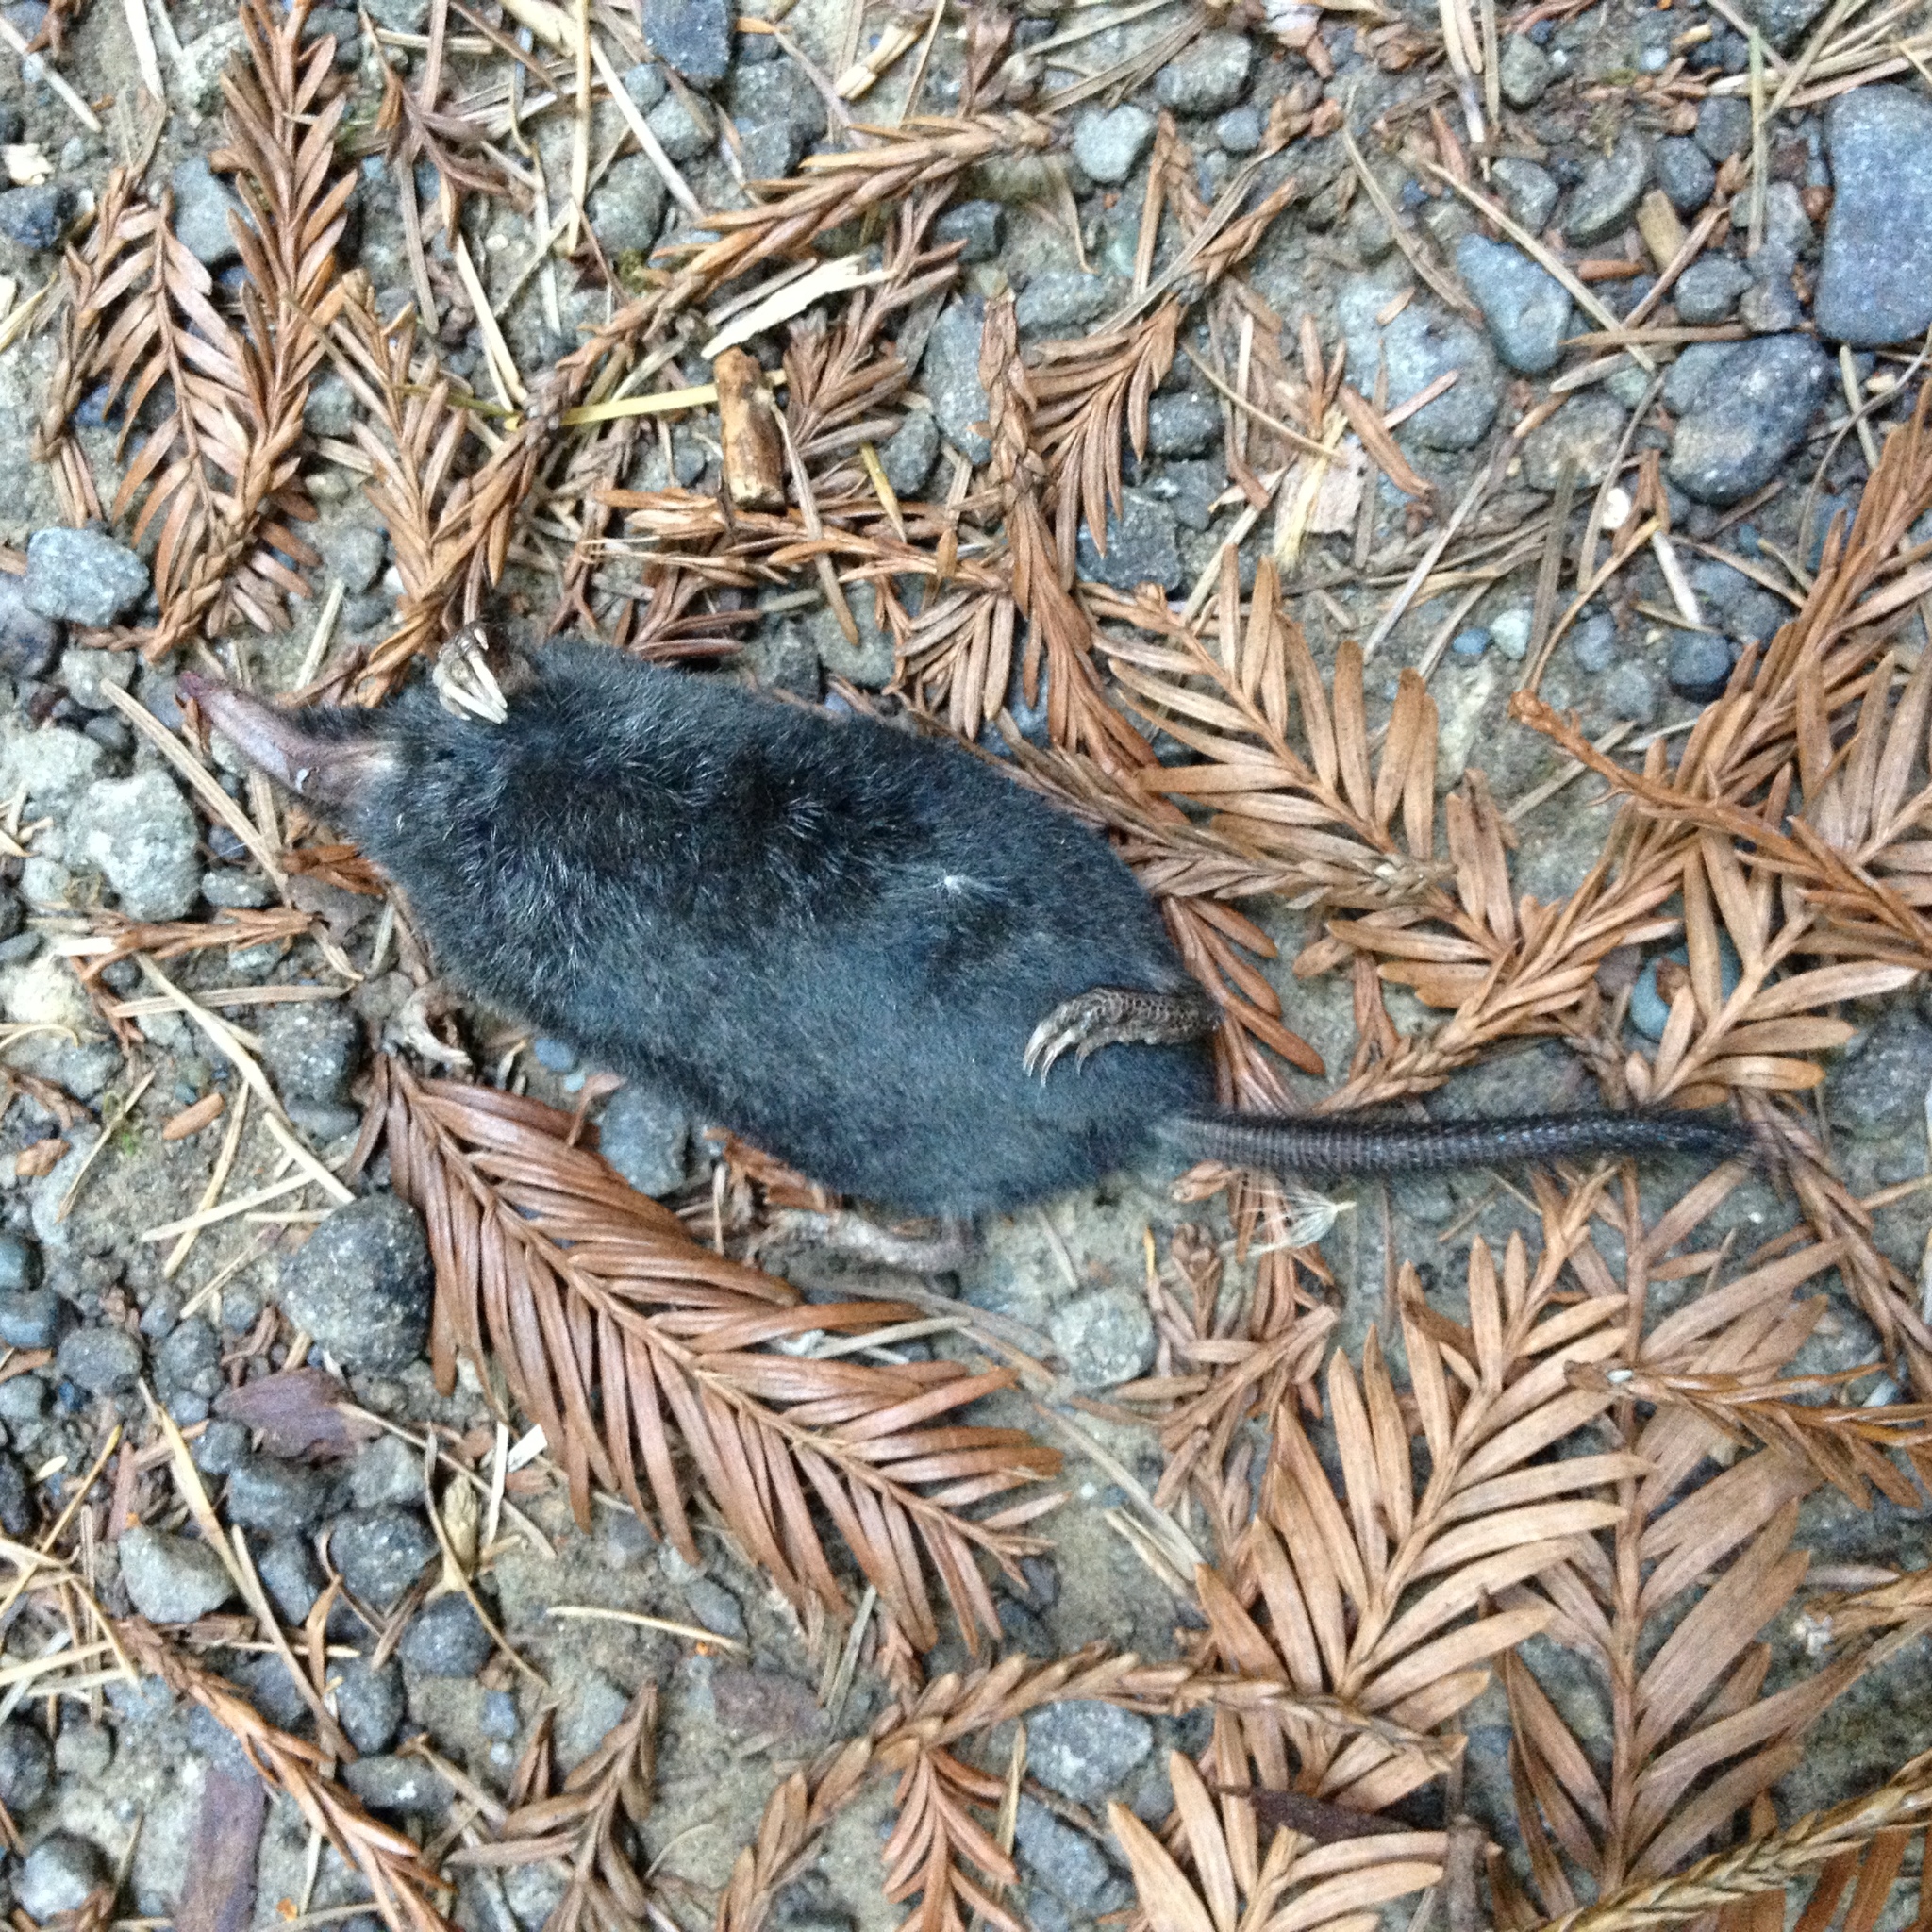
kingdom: Animalia
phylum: Chordata
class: Mammalia
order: Soricomorpha
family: Talpidae
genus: Neurotrichus
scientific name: Neurotrichus gibbsii
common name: American shrew mole
